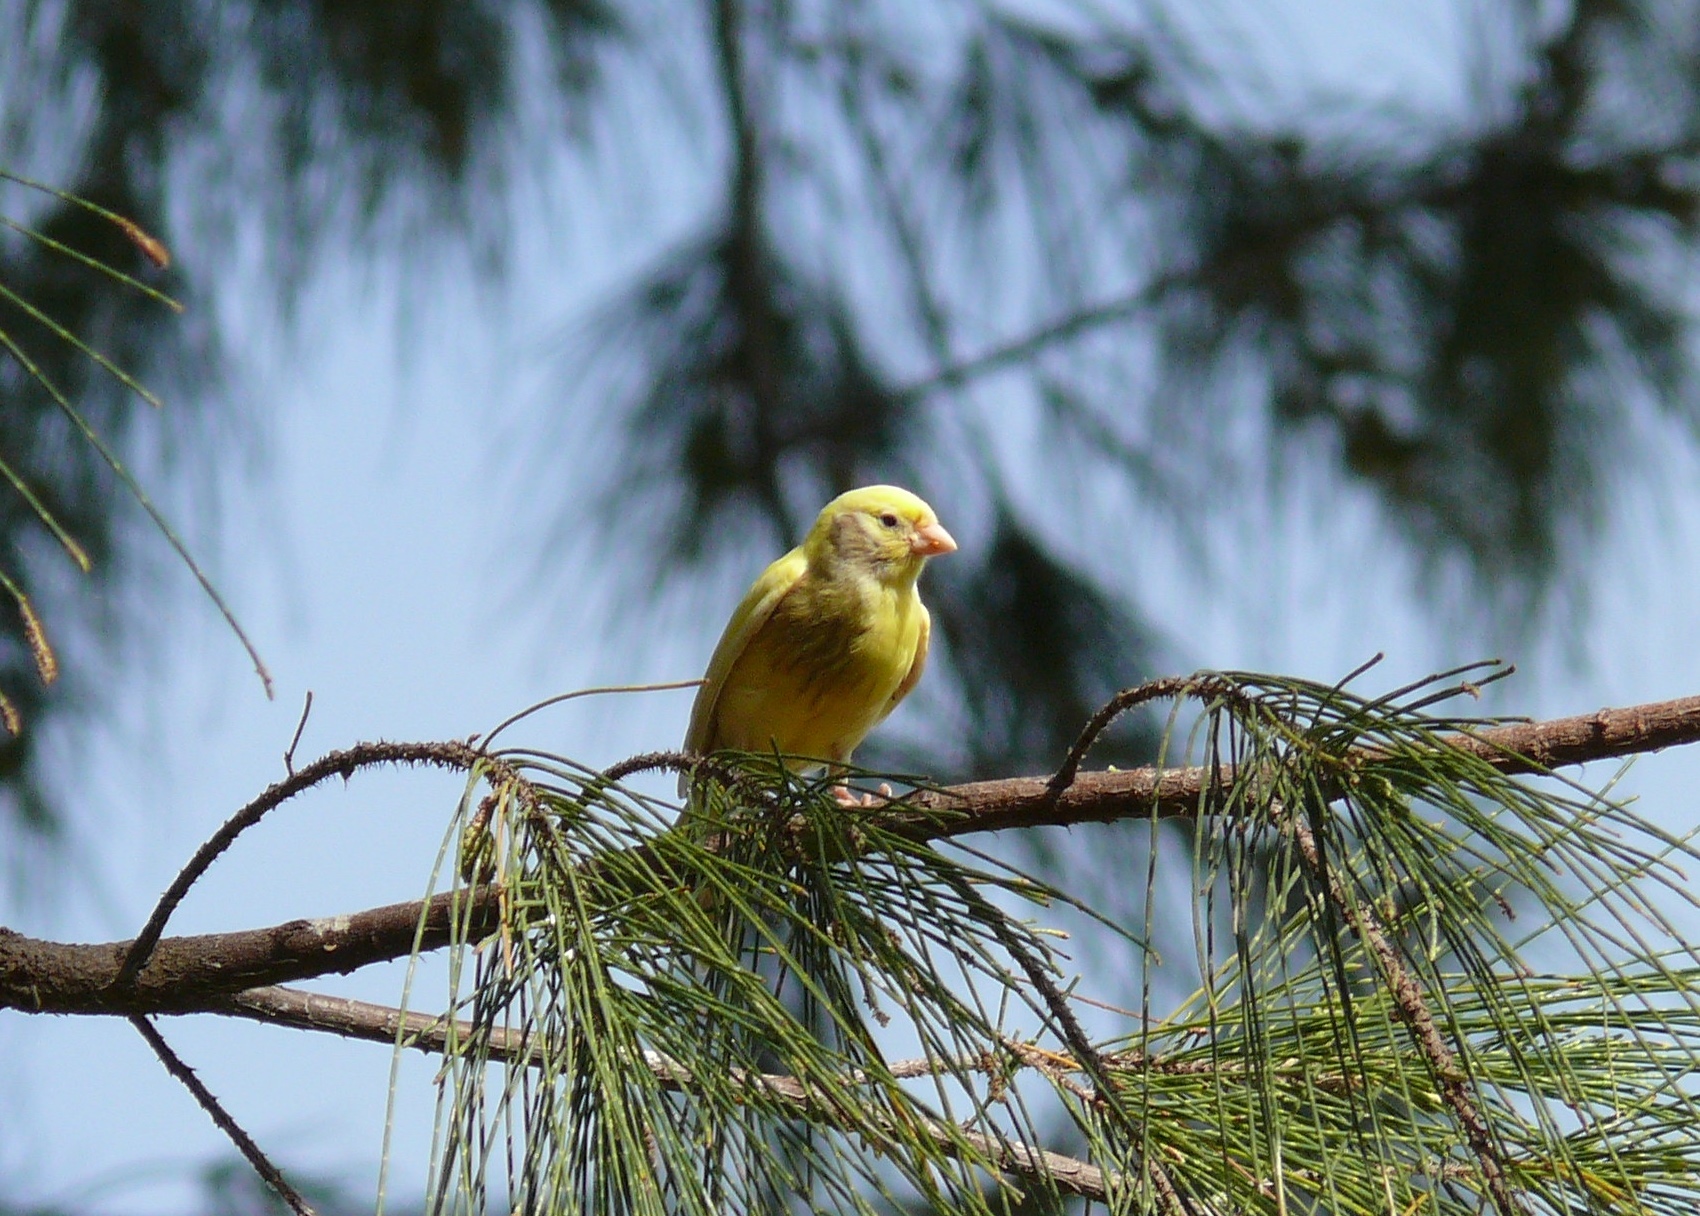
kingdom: Animalia
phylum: Chordata
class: Aves
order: Passeriformes
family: Fringillidae
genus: Serinus
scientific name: Serinus canaria
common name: Atlantic canary
